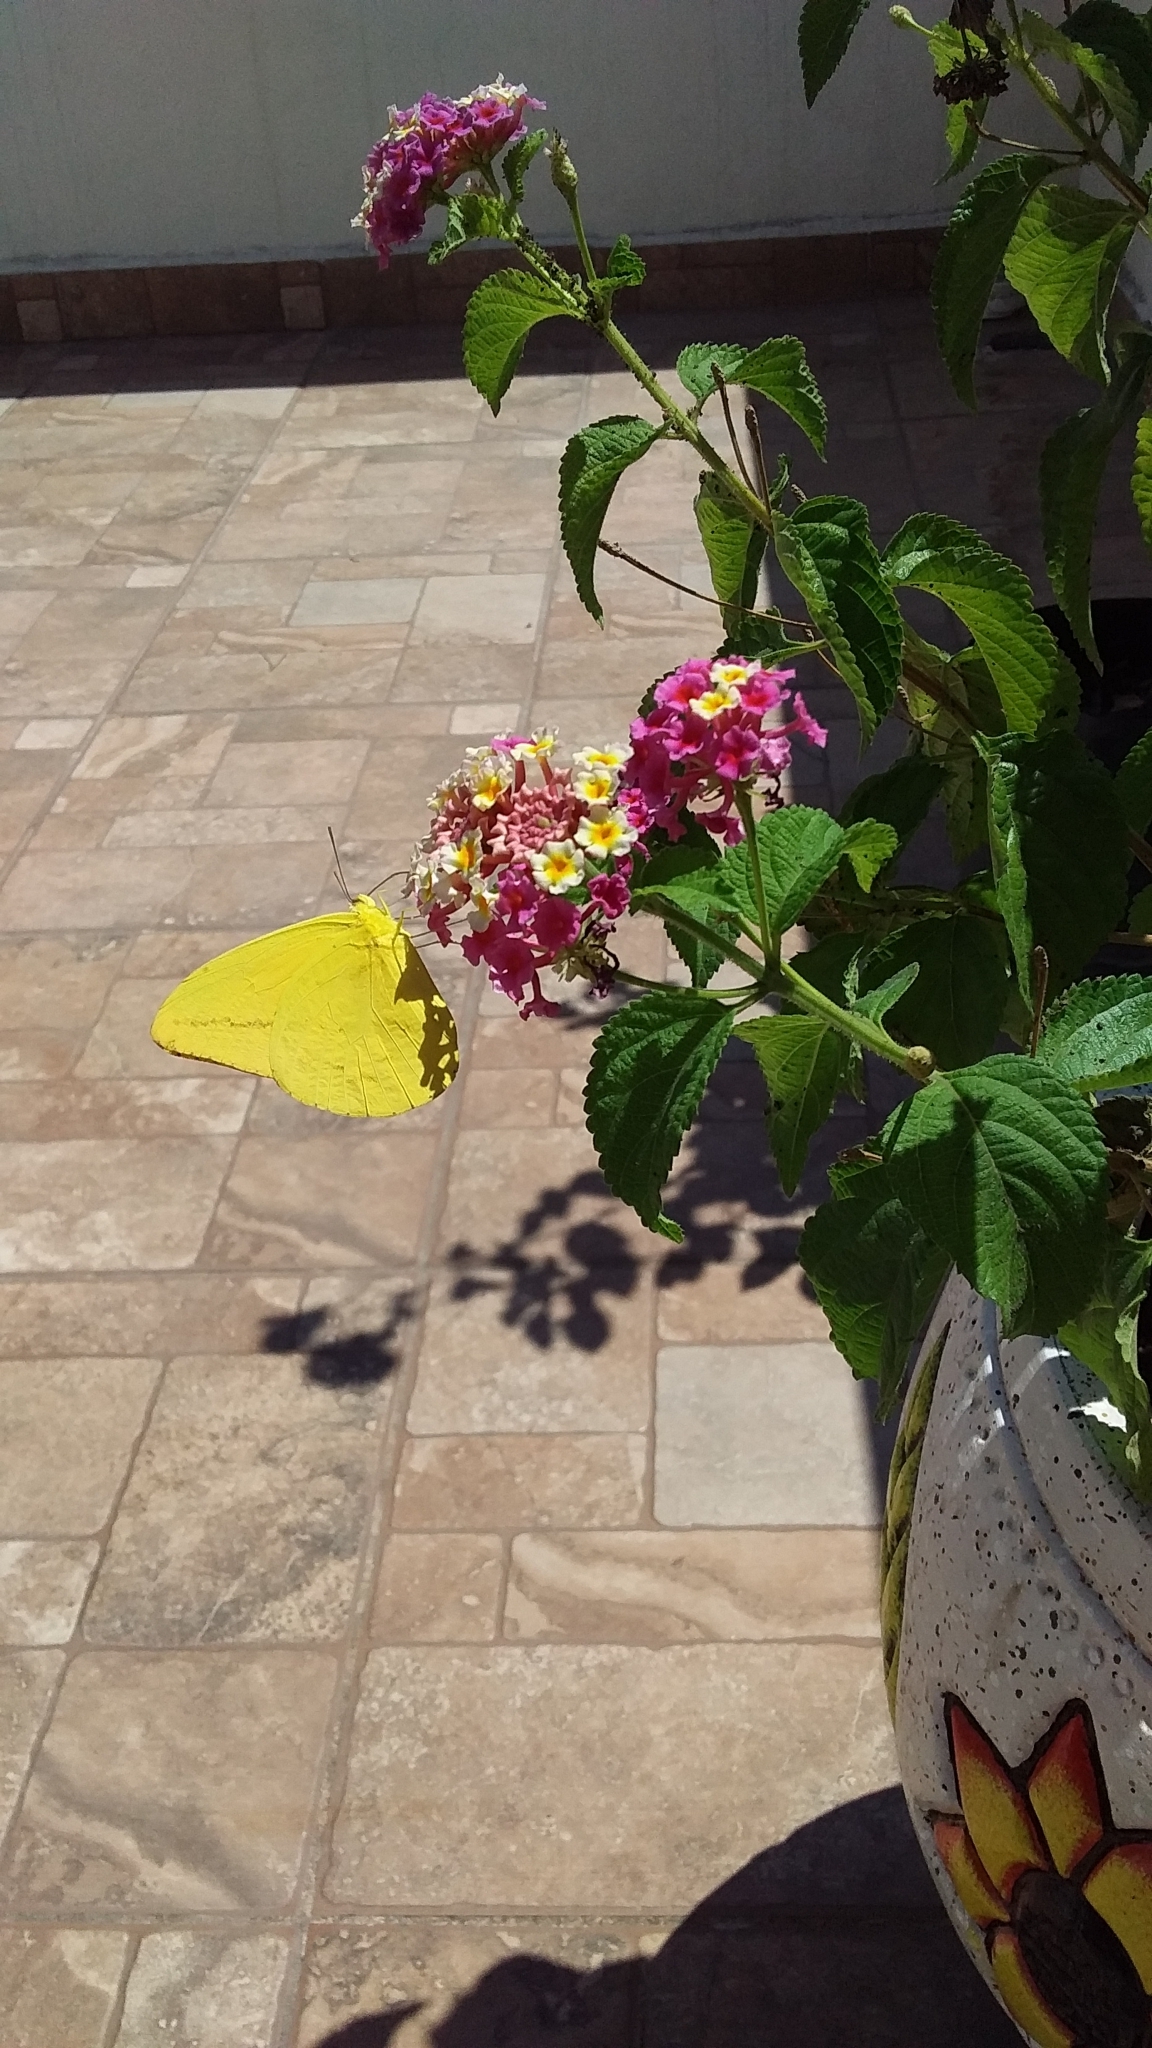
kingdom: Animalia
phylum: Arthropoda
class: Insecta
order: Lepidoptera
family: Pieridae
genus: Phoebis
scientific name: Phoebis agarithe
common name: Large orange sulphur
